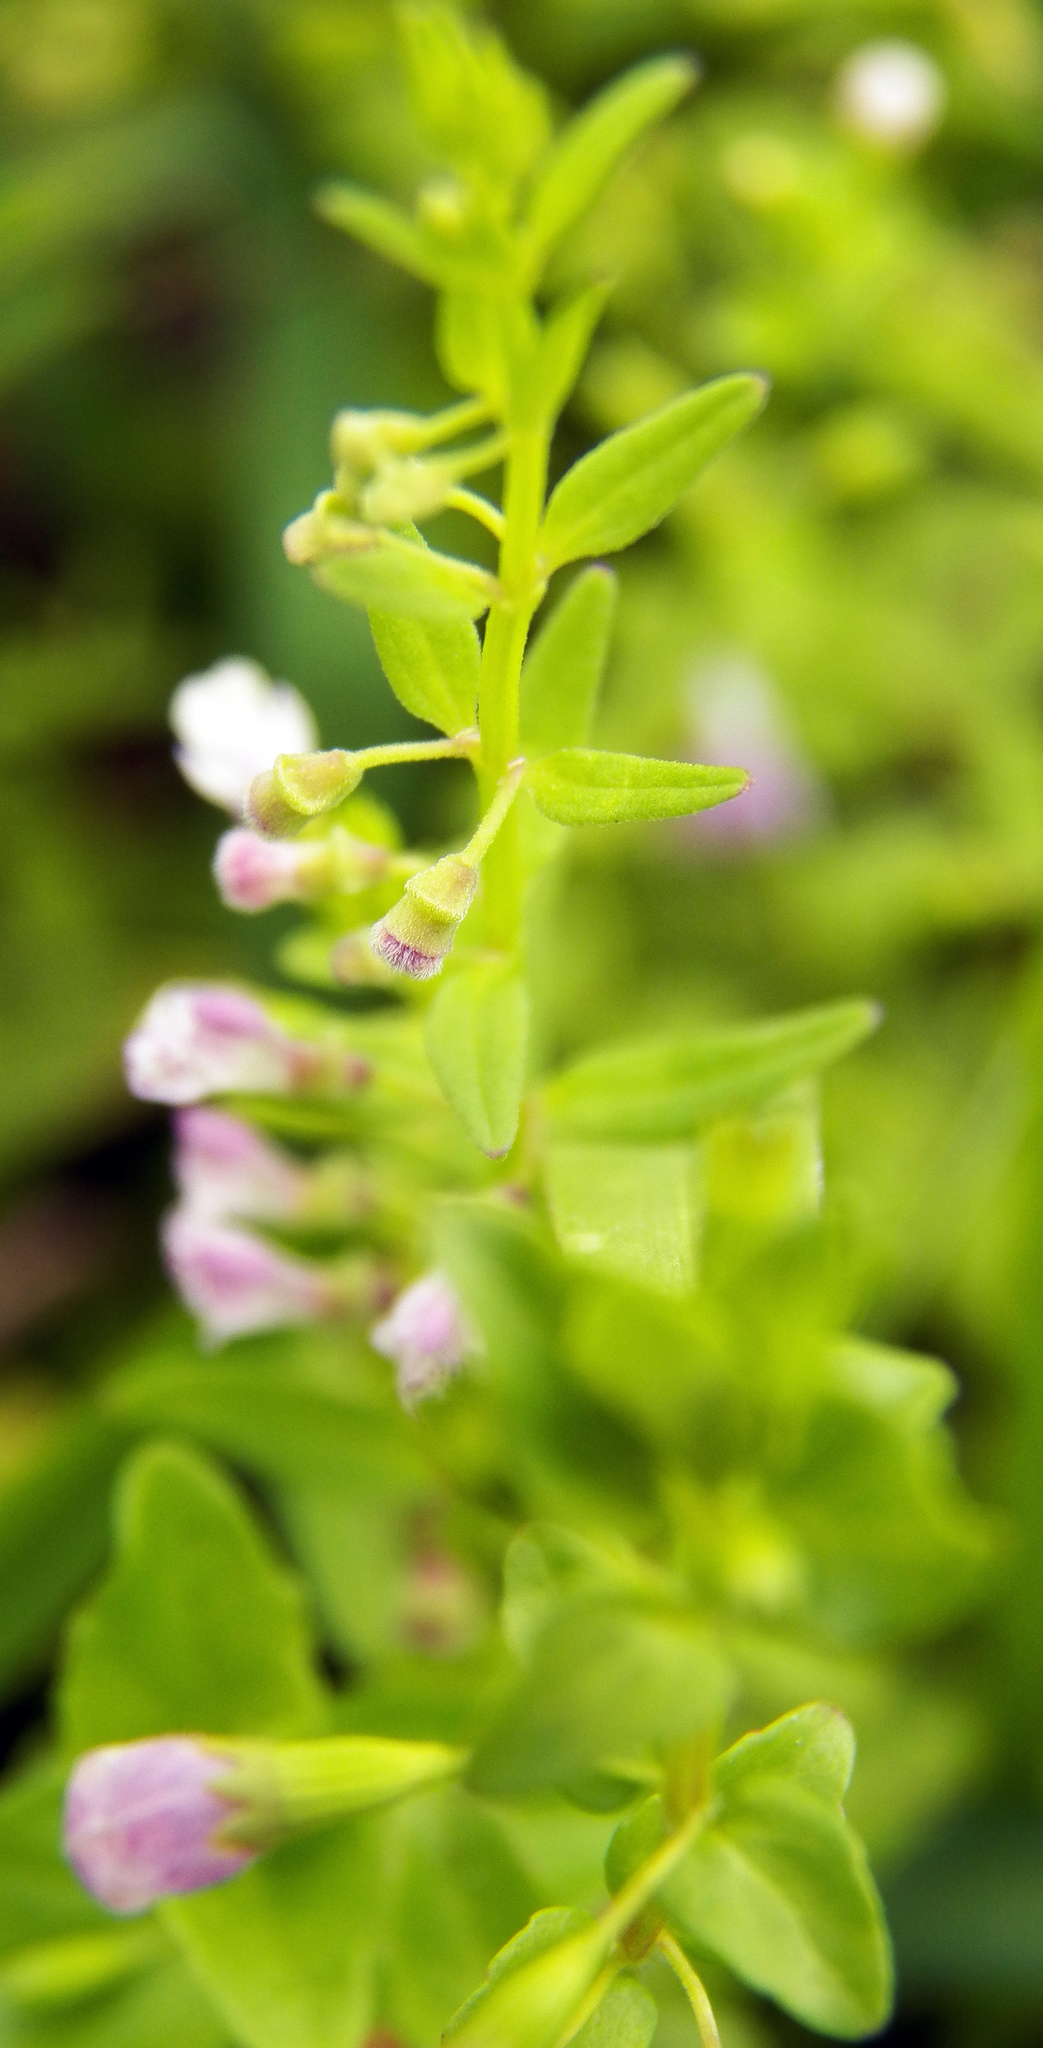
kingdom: Plantae
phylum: Tracheophyta
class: Magnoliopsida
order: Lamiales
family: Lamiaceae
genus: Scutellaria
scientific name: Scutellaria racemosa
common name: South american skullcap
